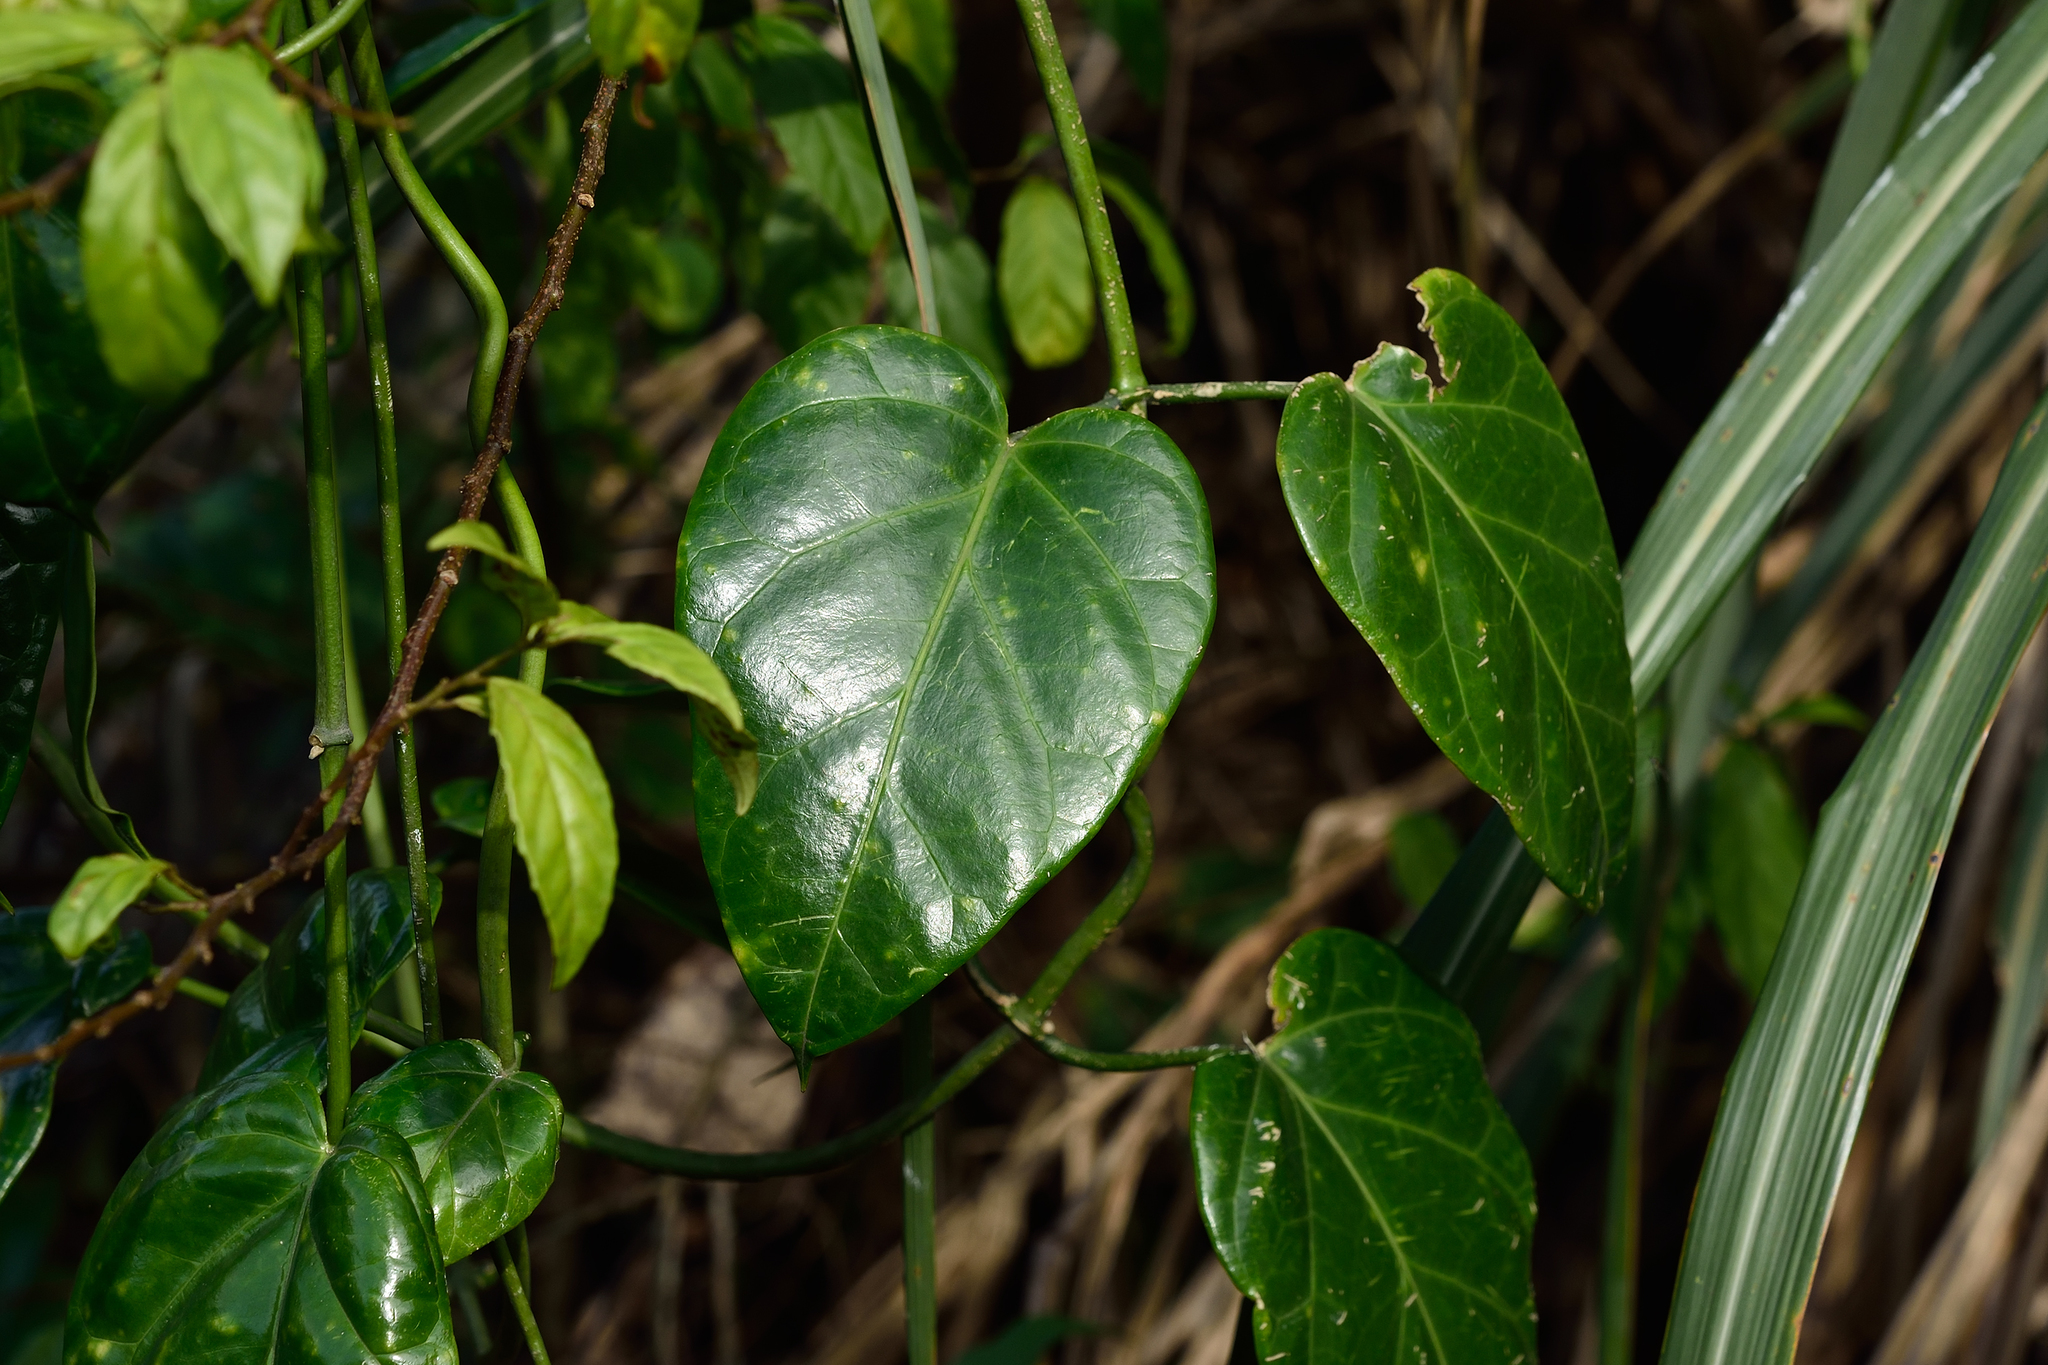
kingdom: Plantae
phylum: Tracheophyta
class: Magnoliopsida
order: Gentianales
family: Apocynaceae
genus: Sinomarsdenia
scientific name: Sinomarsdenia formosana
